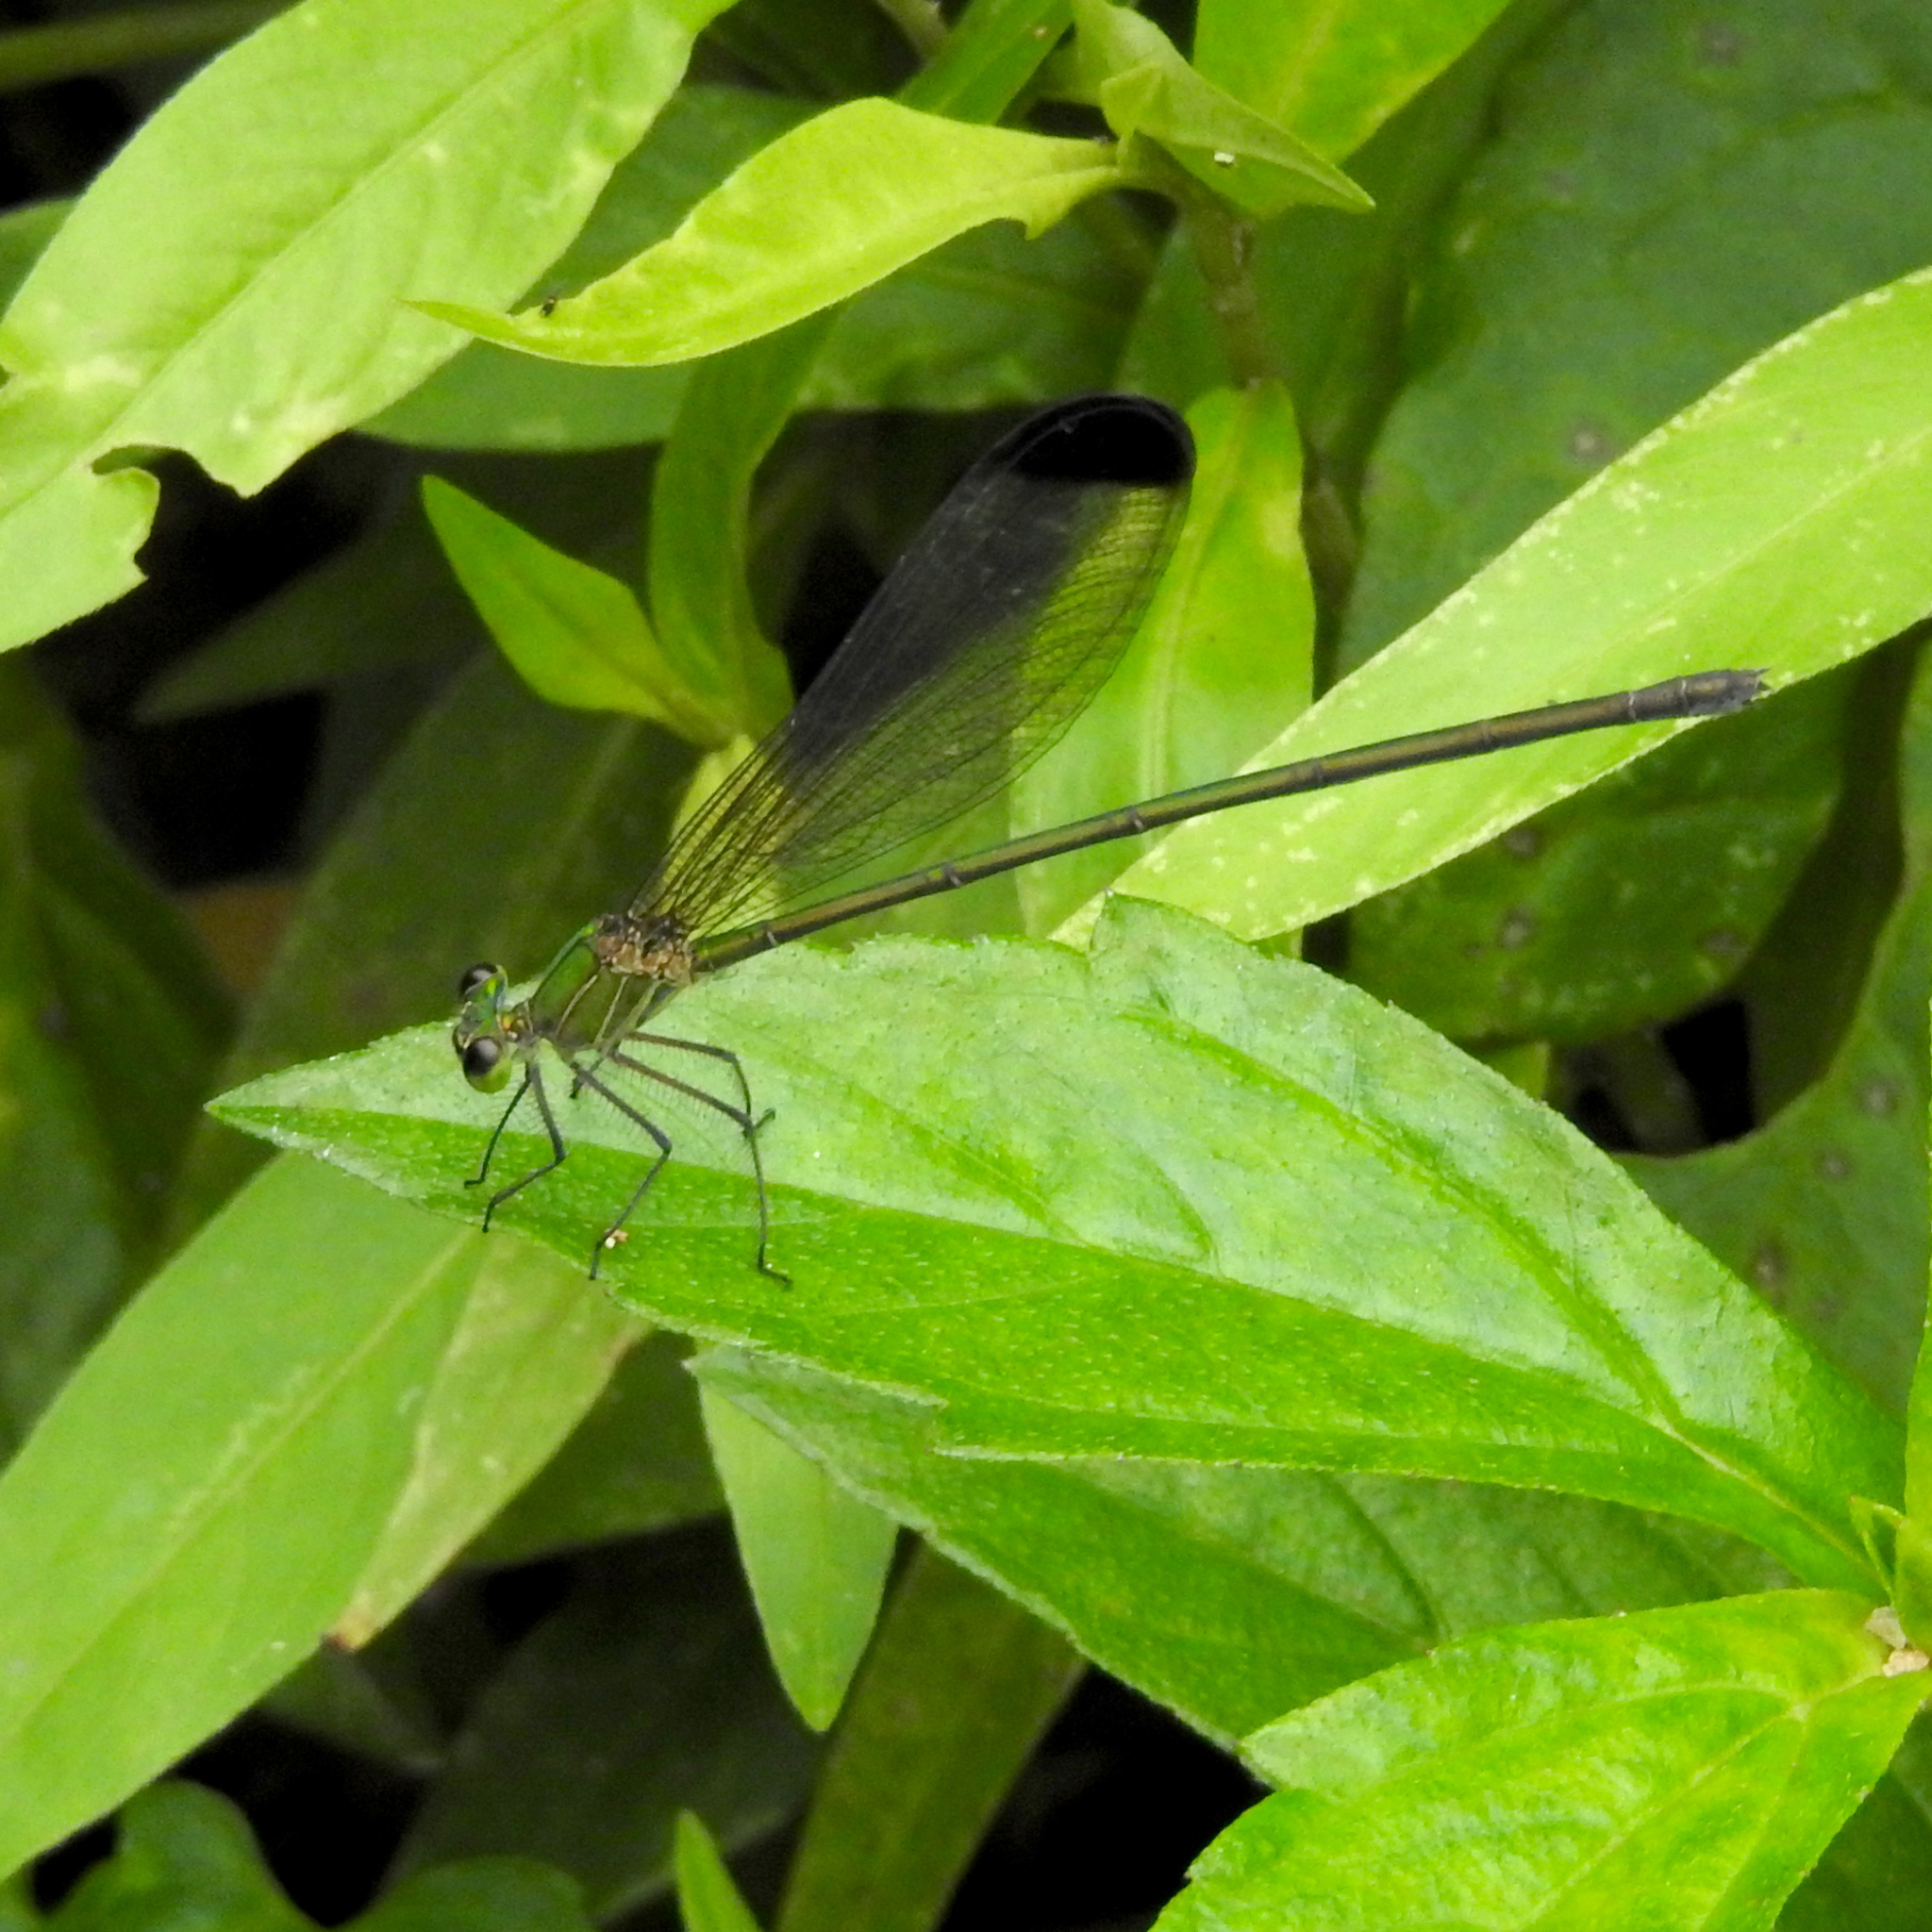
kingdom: Animalia
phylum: Arthropoda
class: Insecta
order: Odonata
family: Calopterygidae
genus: Vestalis
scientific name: Vestalis apicalis
